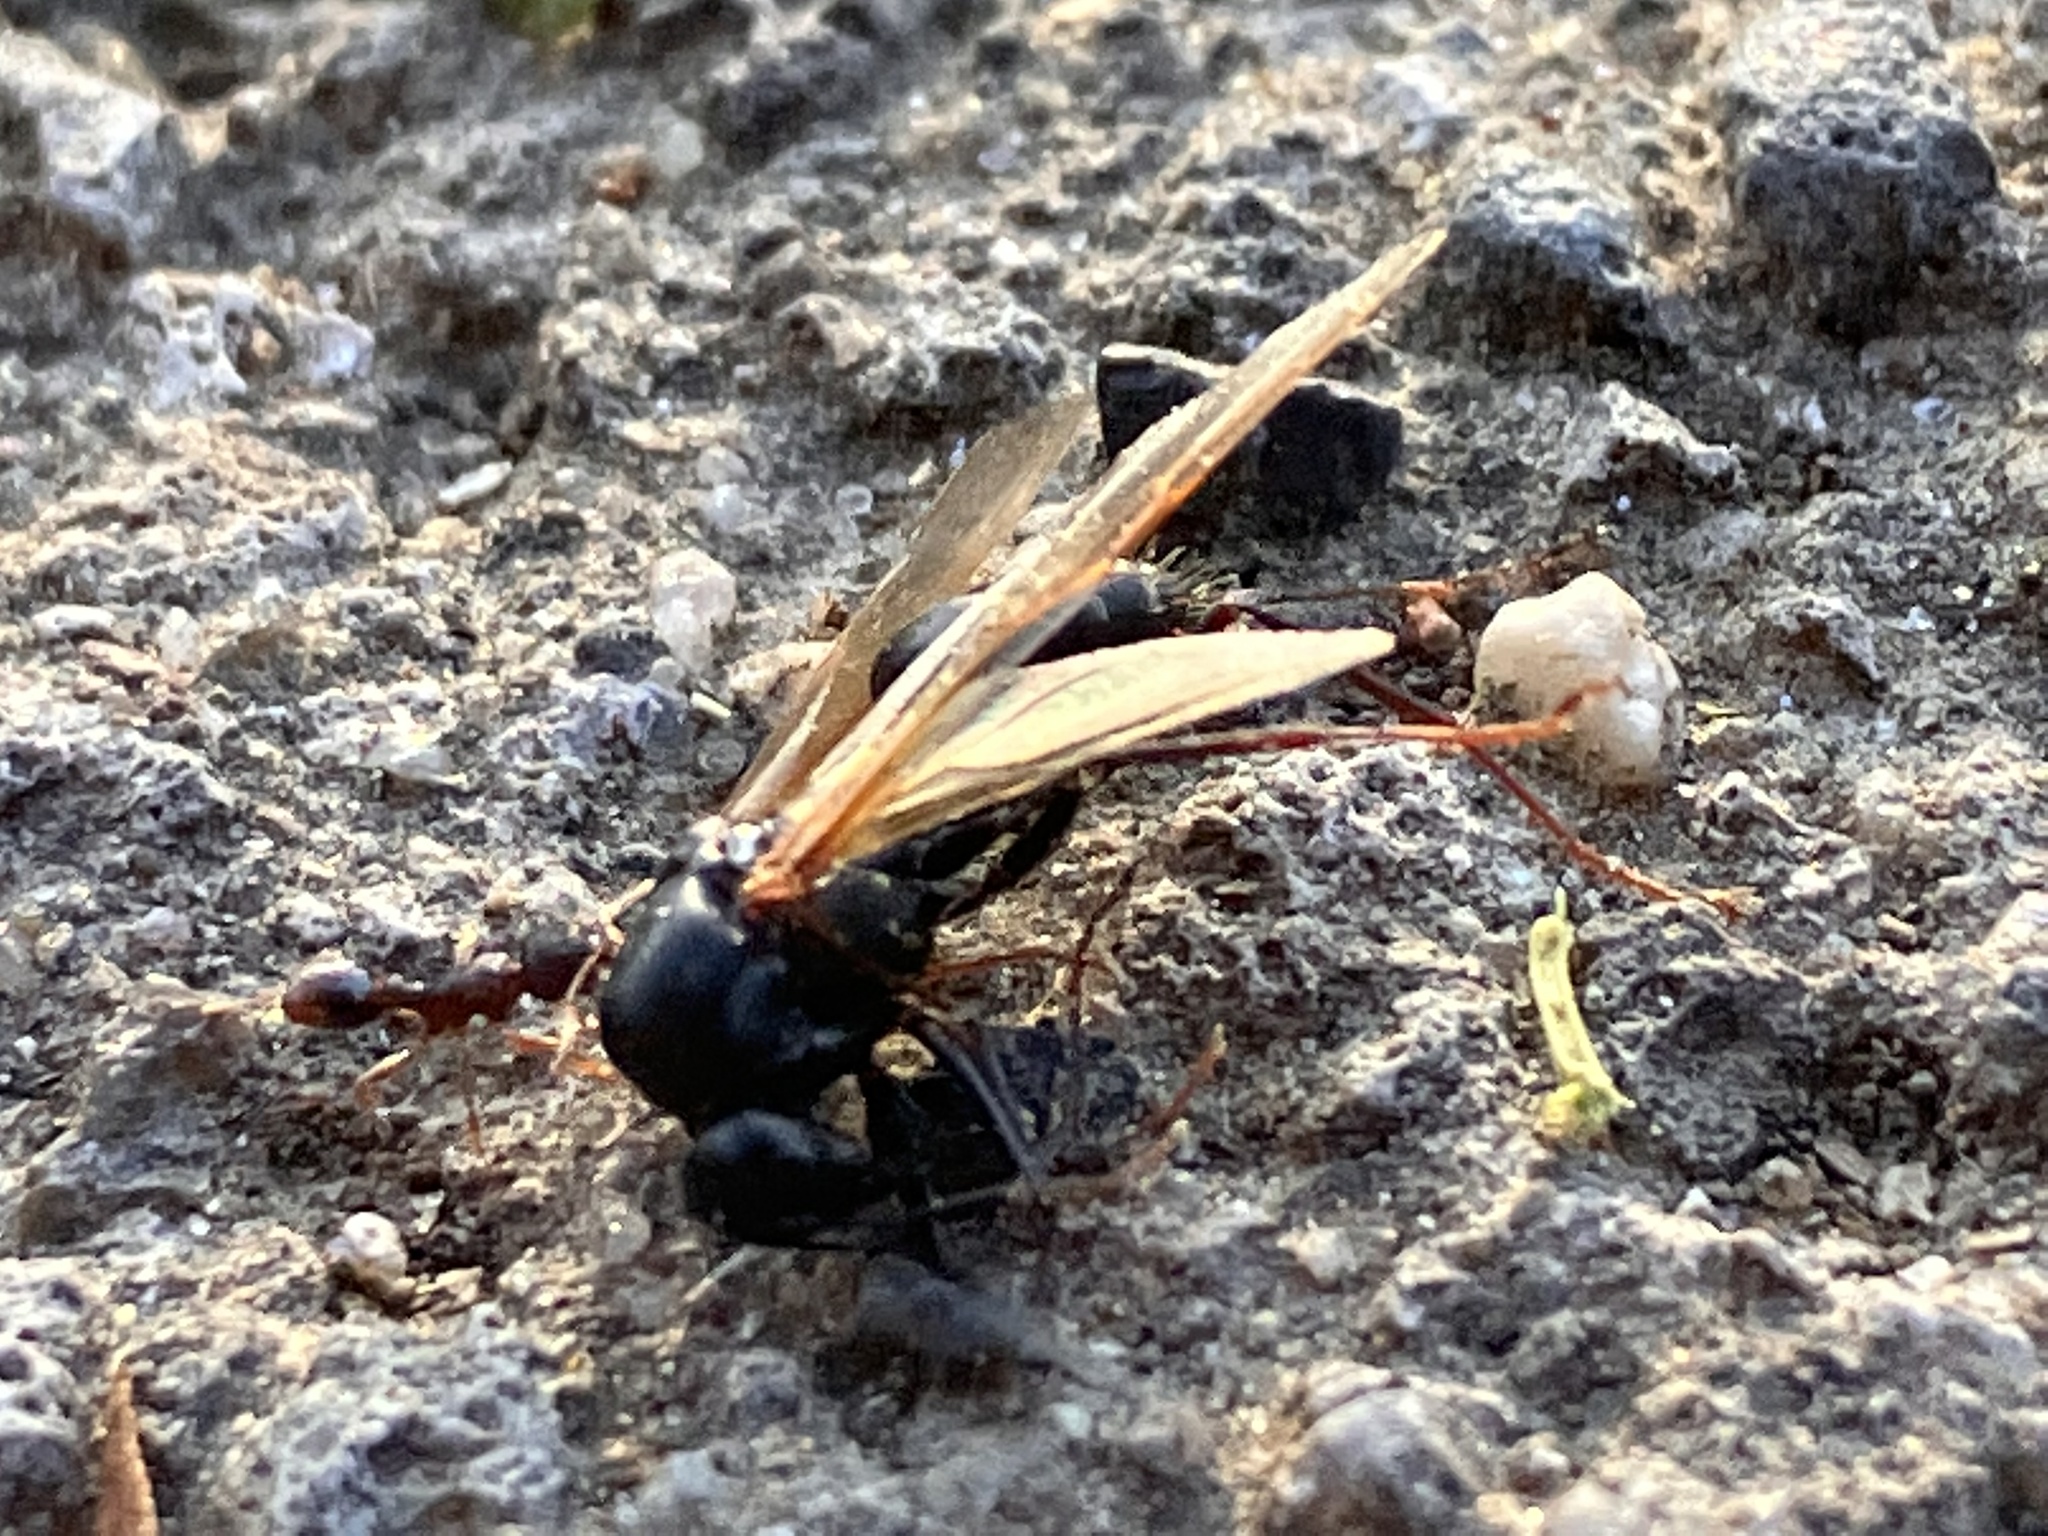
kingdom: Animalia
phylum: Arthropoda
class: Insecta
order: Hymenoptera
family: Formicidae
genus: Camponotus
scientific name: Camponotus pennsylvanicus
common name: Black carpenter ant
